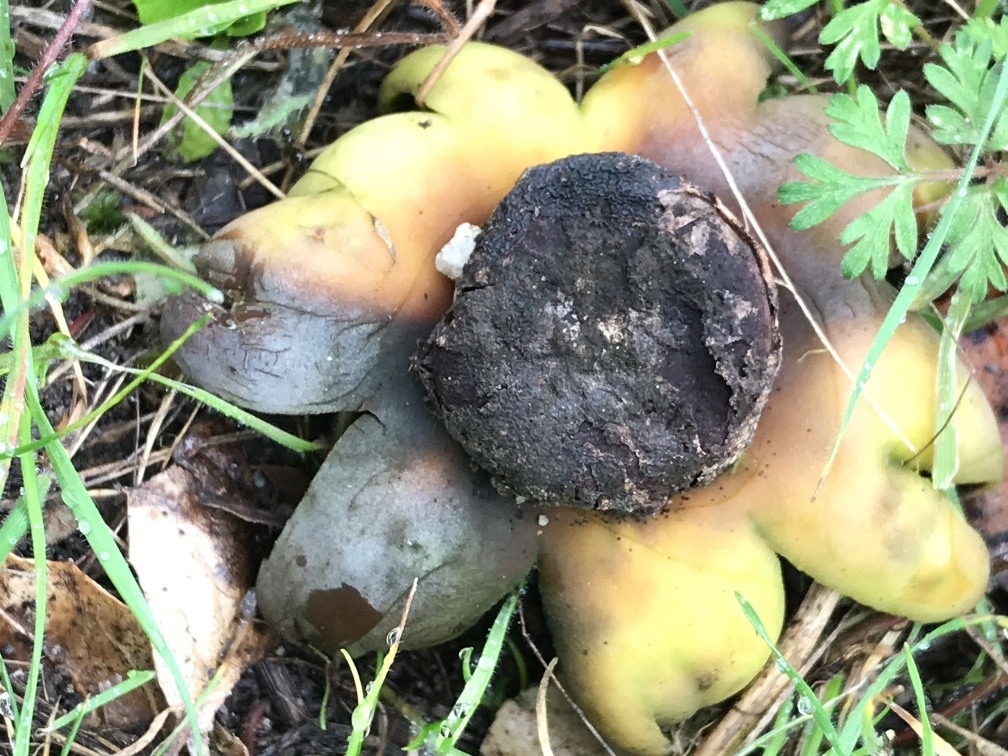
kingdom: Fungi
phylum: Basidiomycota
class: Agaricomycetes
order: Boletales
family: Diplocystidiaceae
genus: Astraeus
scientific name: Astraeus hygrometricus
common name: Barometer earthstar
